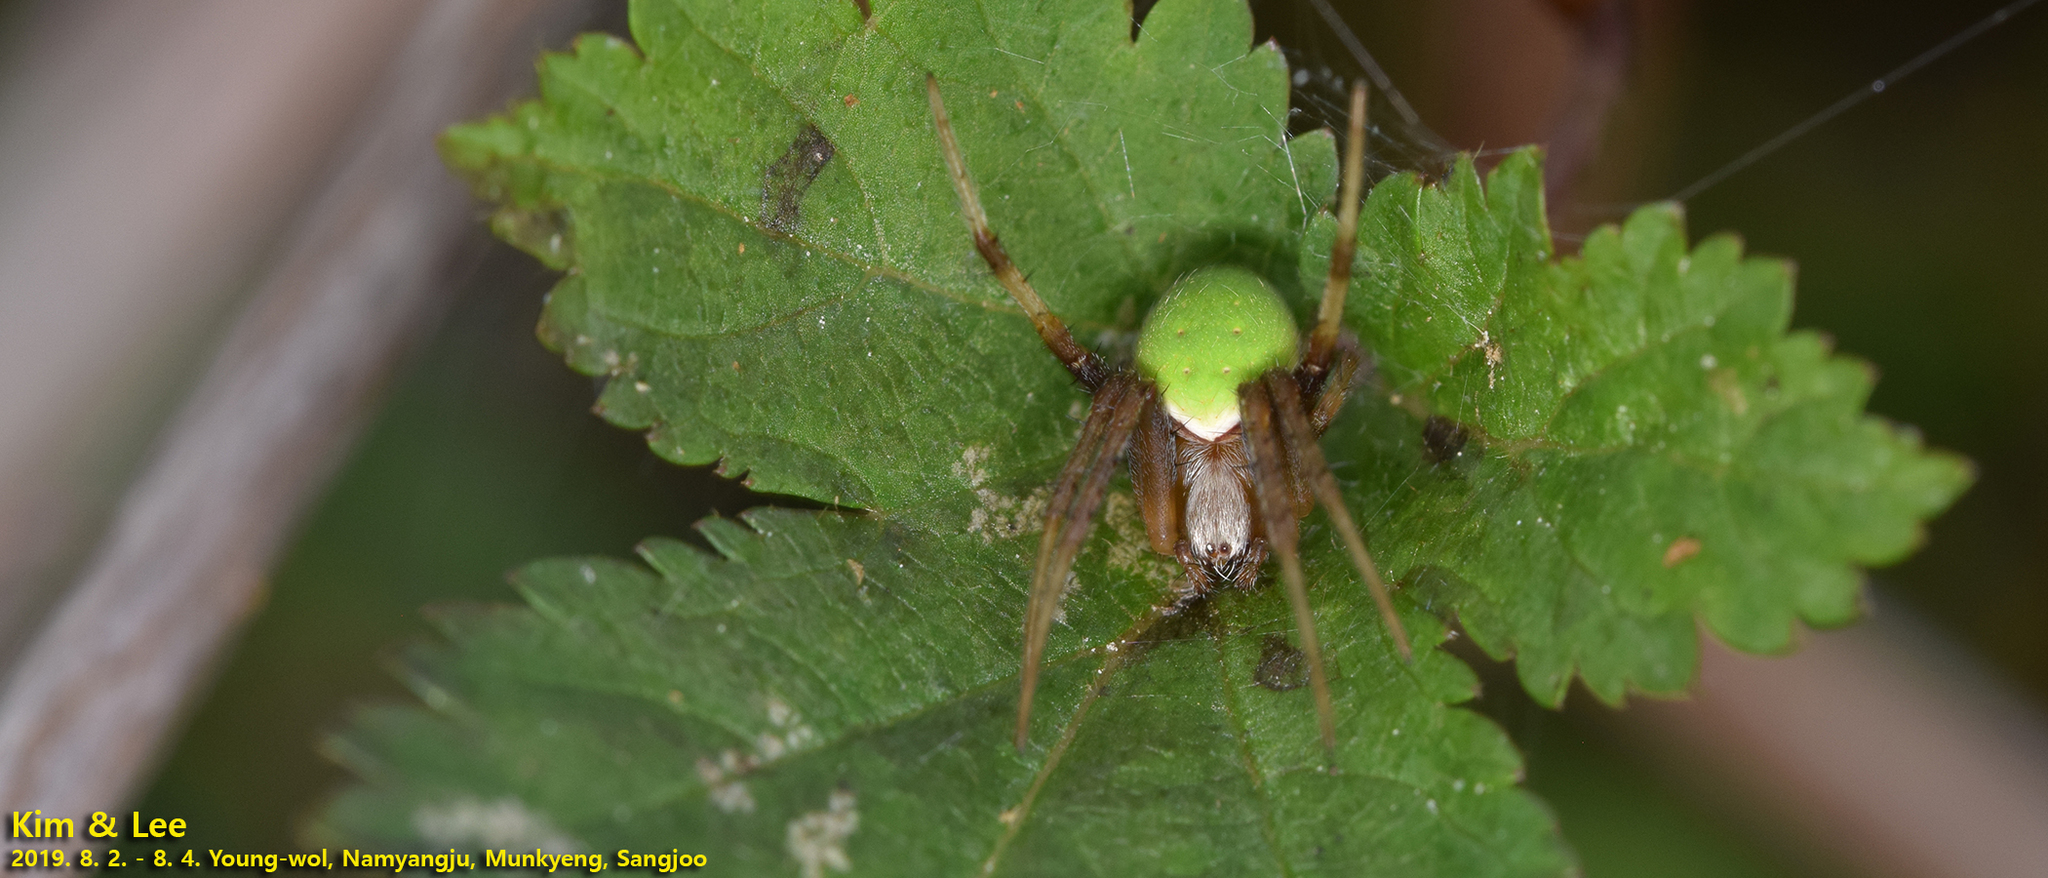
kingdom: Animalia
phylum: Arthropoda
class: Arachnida
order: Araneae
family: Araneidae
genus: Neoscona
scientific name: Neoscona mellotteei
